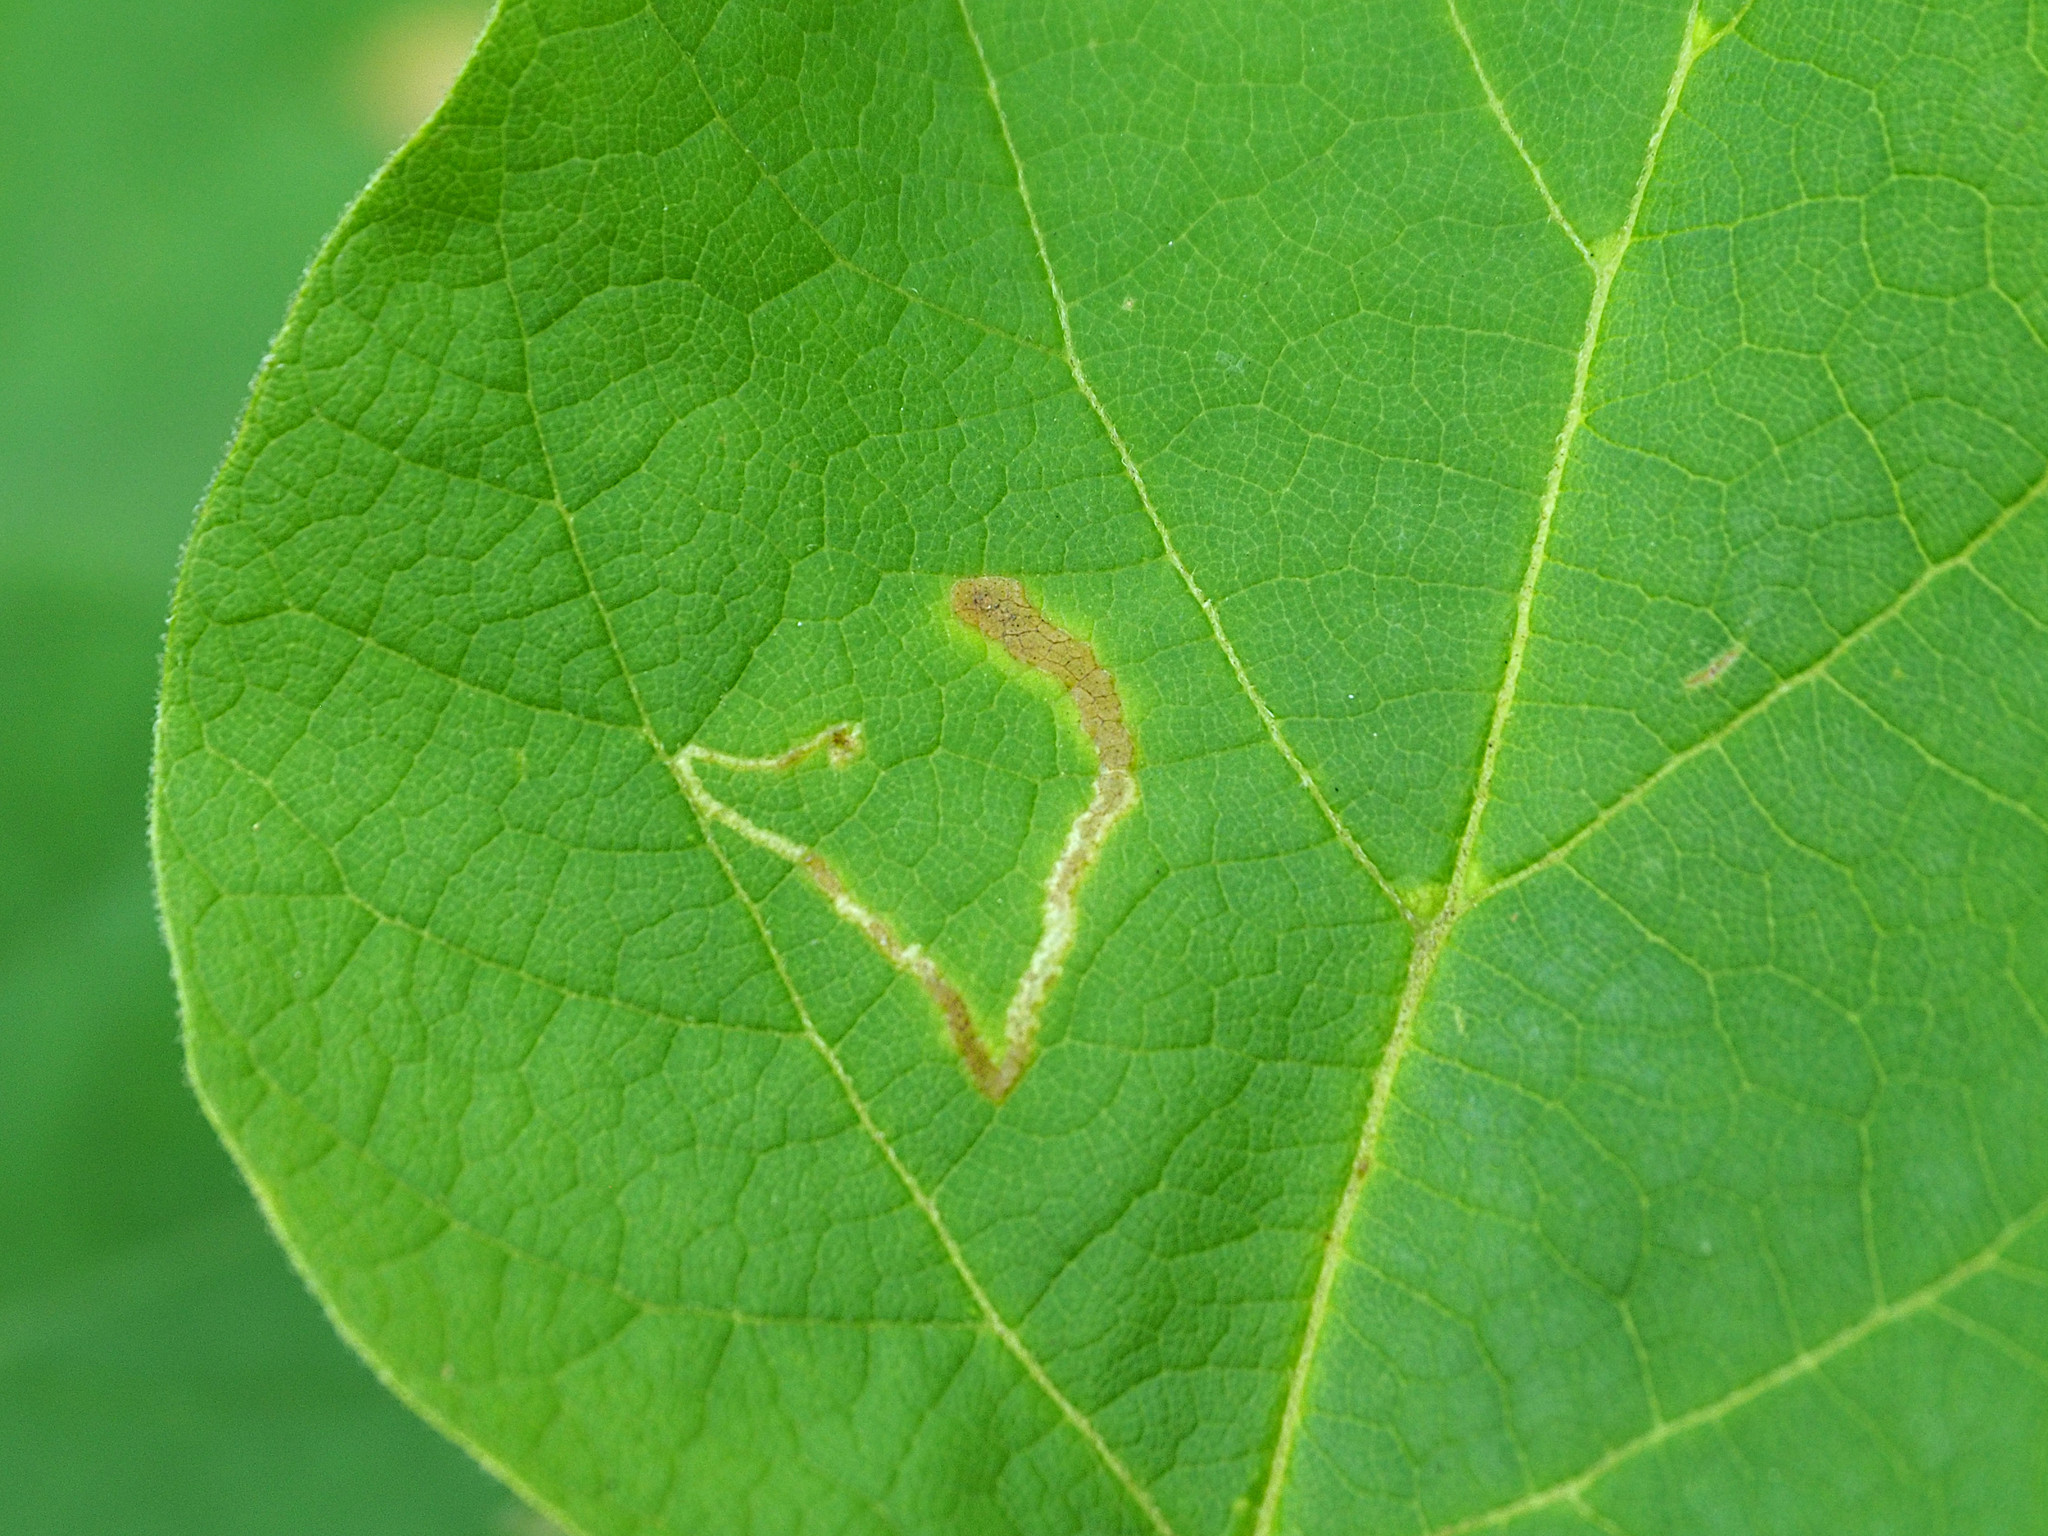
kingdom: Animalia
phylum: Arthropoda
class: Insecta
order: Diptera
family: Agromyzidae
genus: Amauromyza
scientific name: Amauromyza pleuralis
